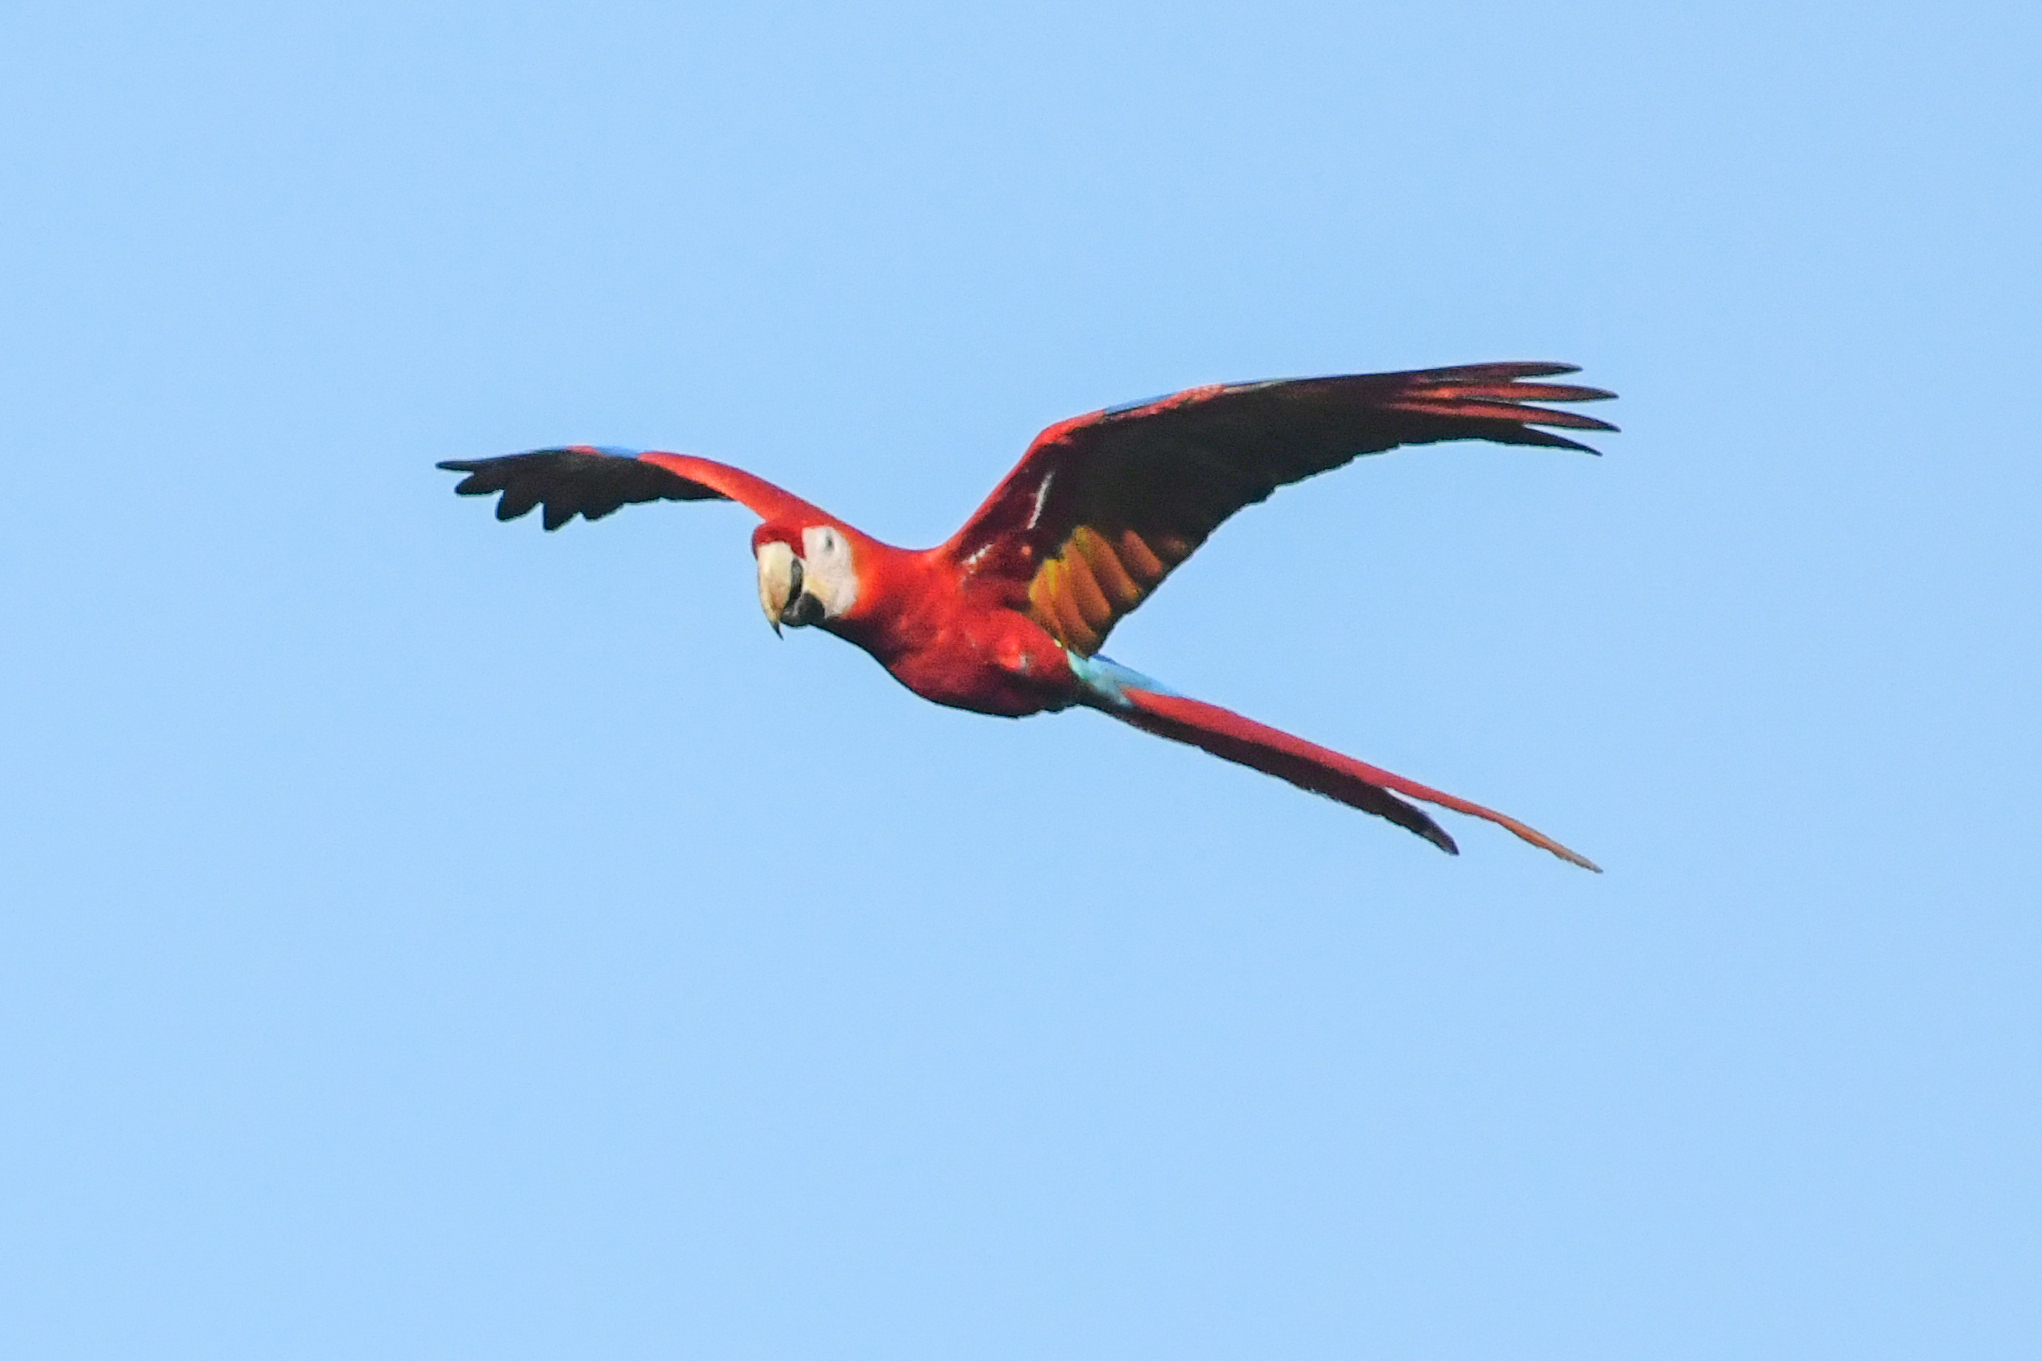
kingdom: Animalia
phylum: Chordata
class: Aves
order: Psittaciformes
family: Psittacidae
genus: Ara
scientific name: Ara macao
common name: Scarlet macaw
